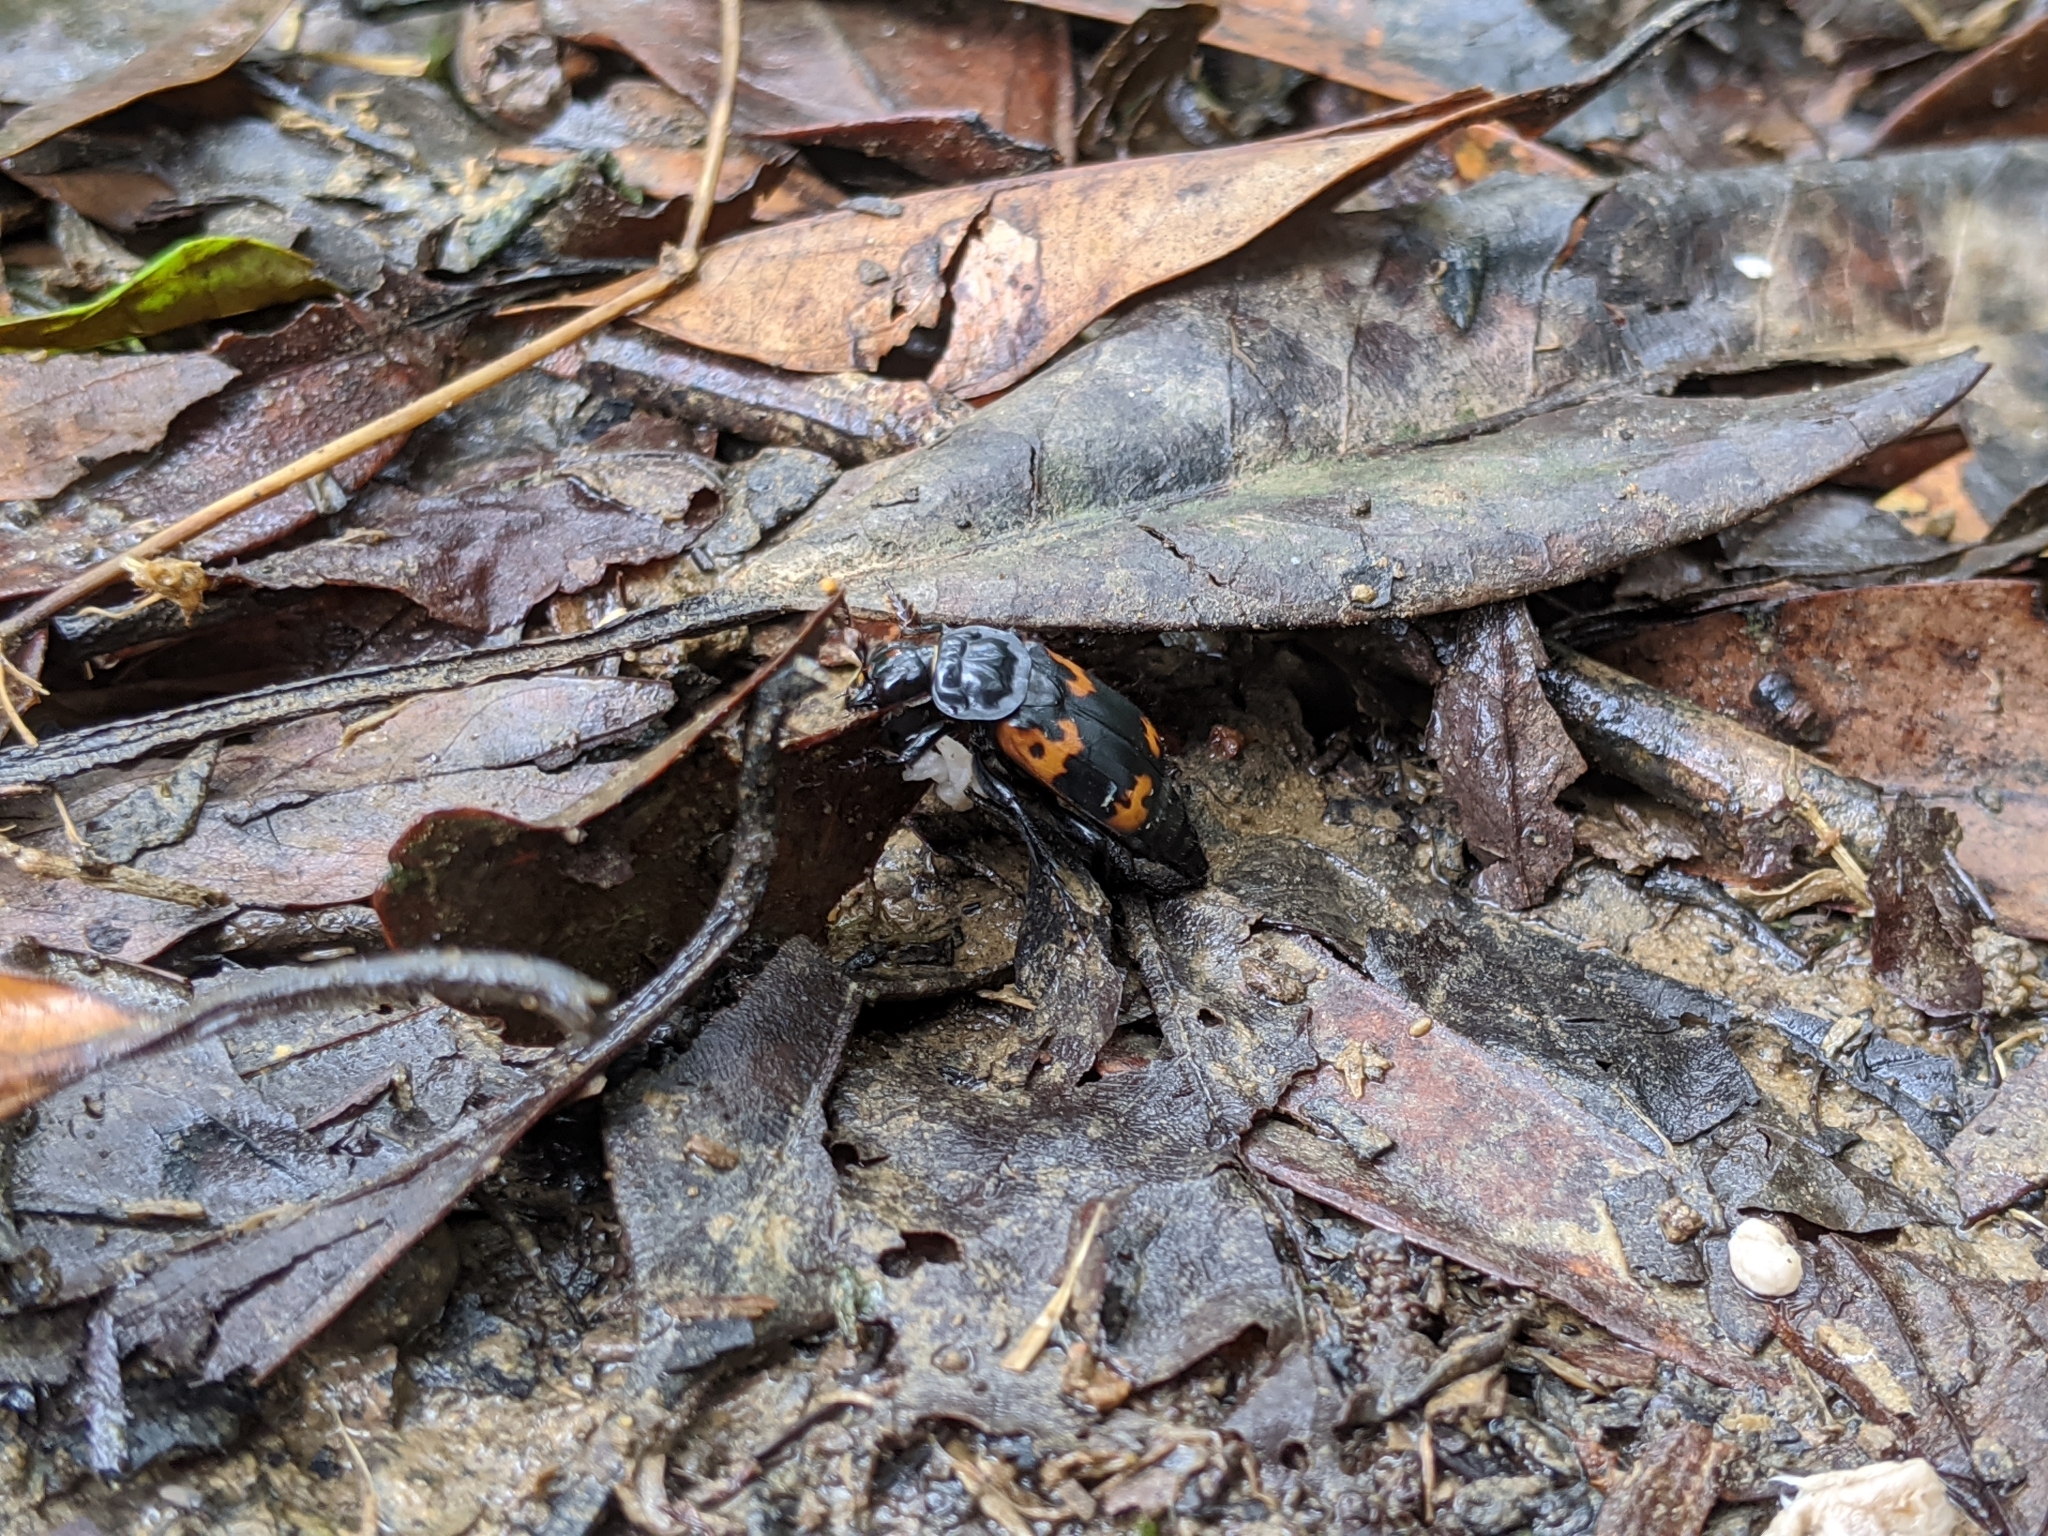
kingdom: Animalia
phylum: Arthropoda
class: Insecta
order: Coleoptera
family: Staphylinidae
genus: Nicrophorus
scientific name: Nicrophorus nepalensis
